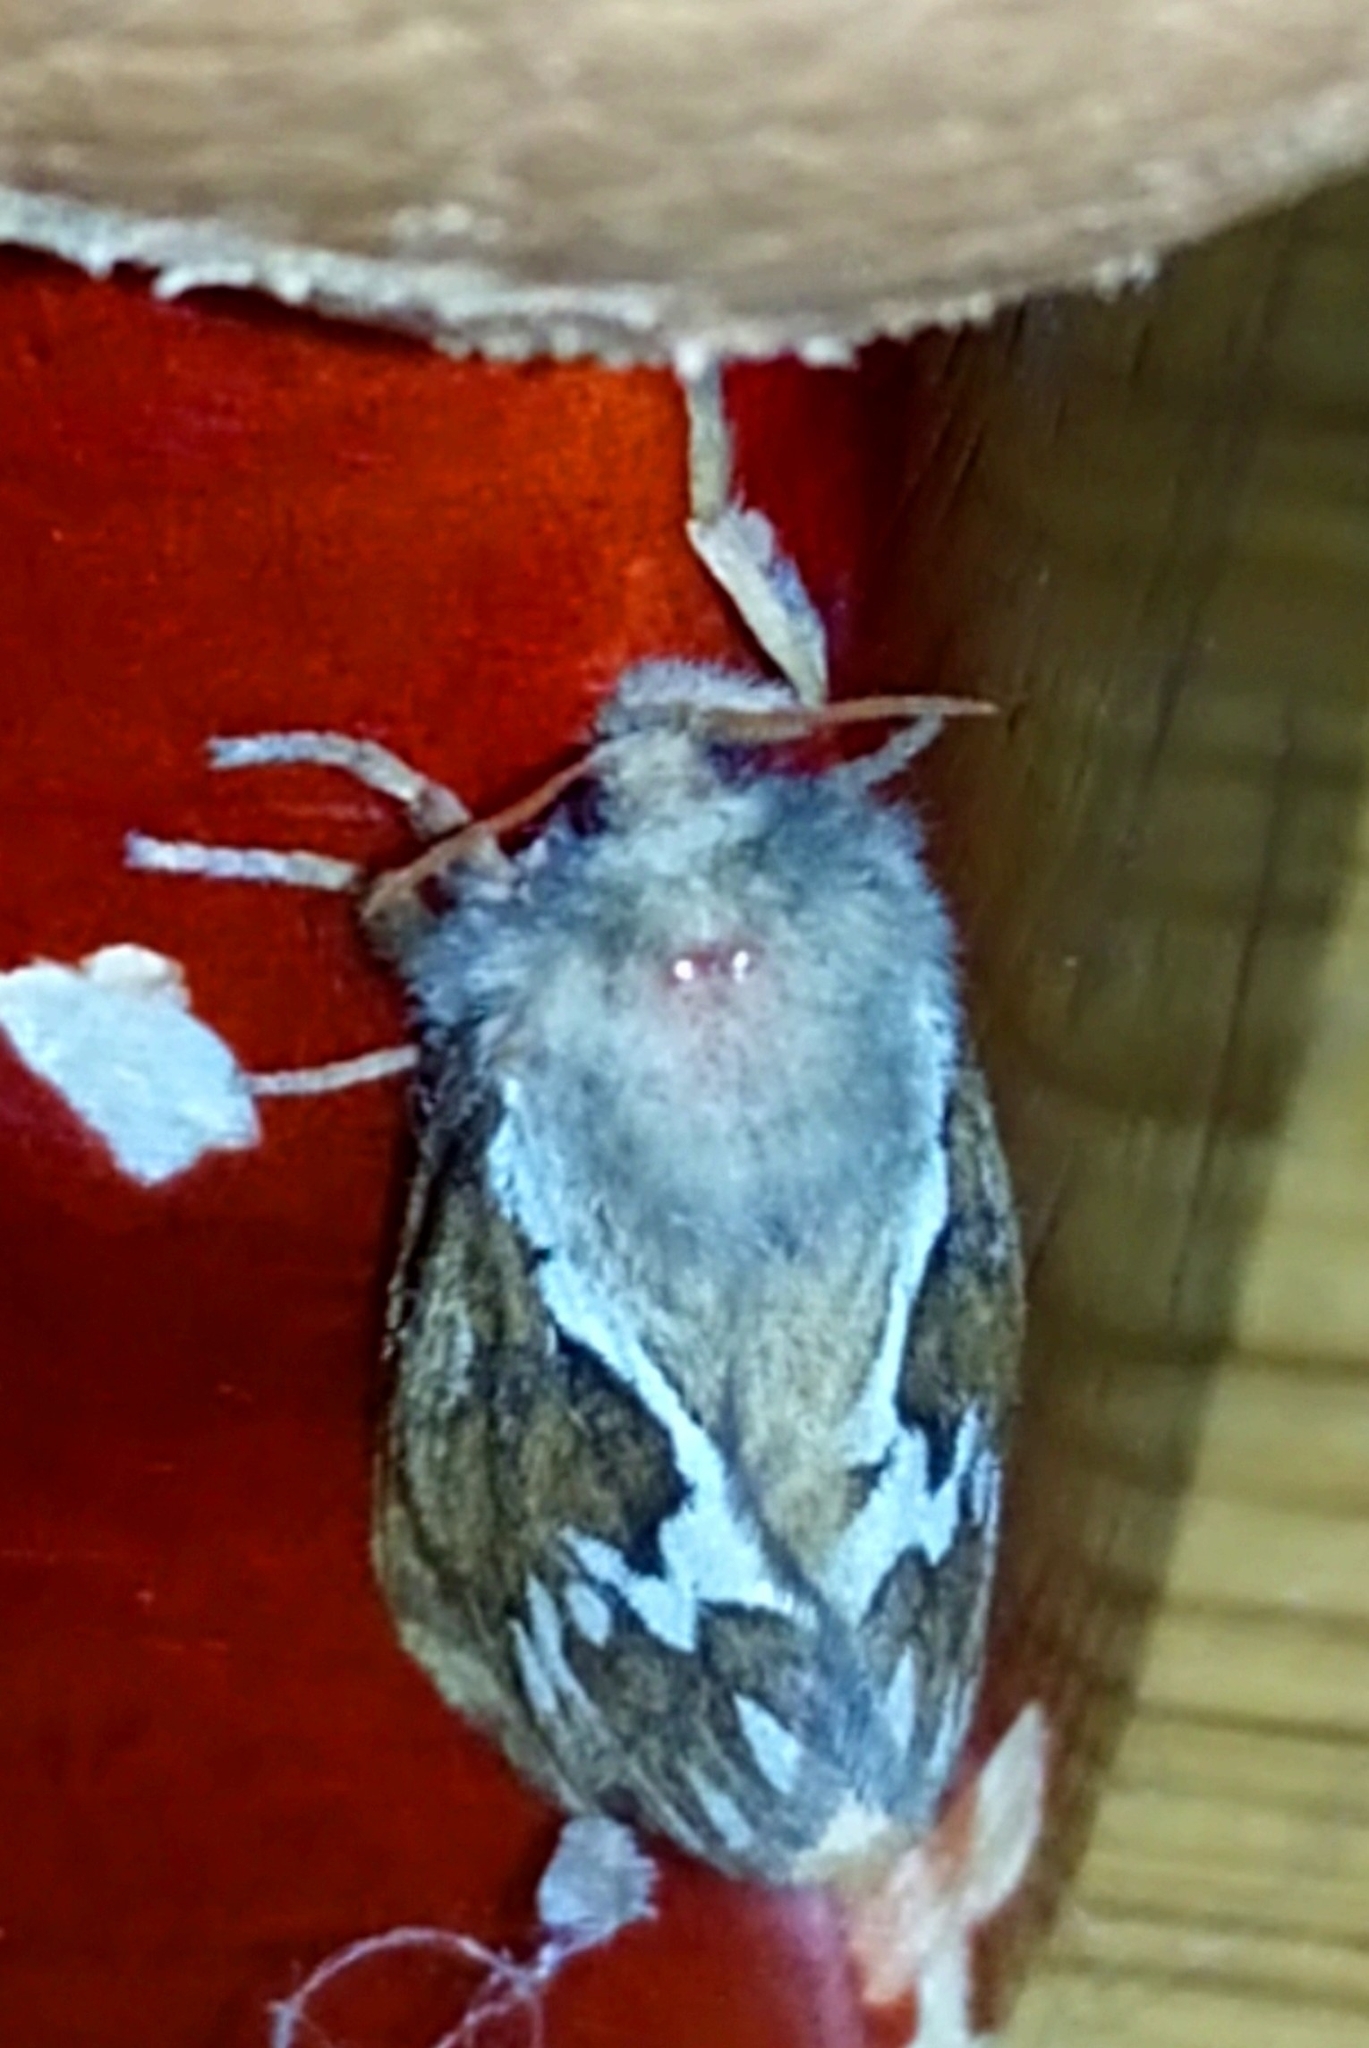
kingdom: Animalia
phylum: Arthropoda
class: Insecta
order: Lepidoptera
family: Hepialidae
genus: Korscheltellus
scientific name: Korscheltellus lupulina
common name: Common swift
